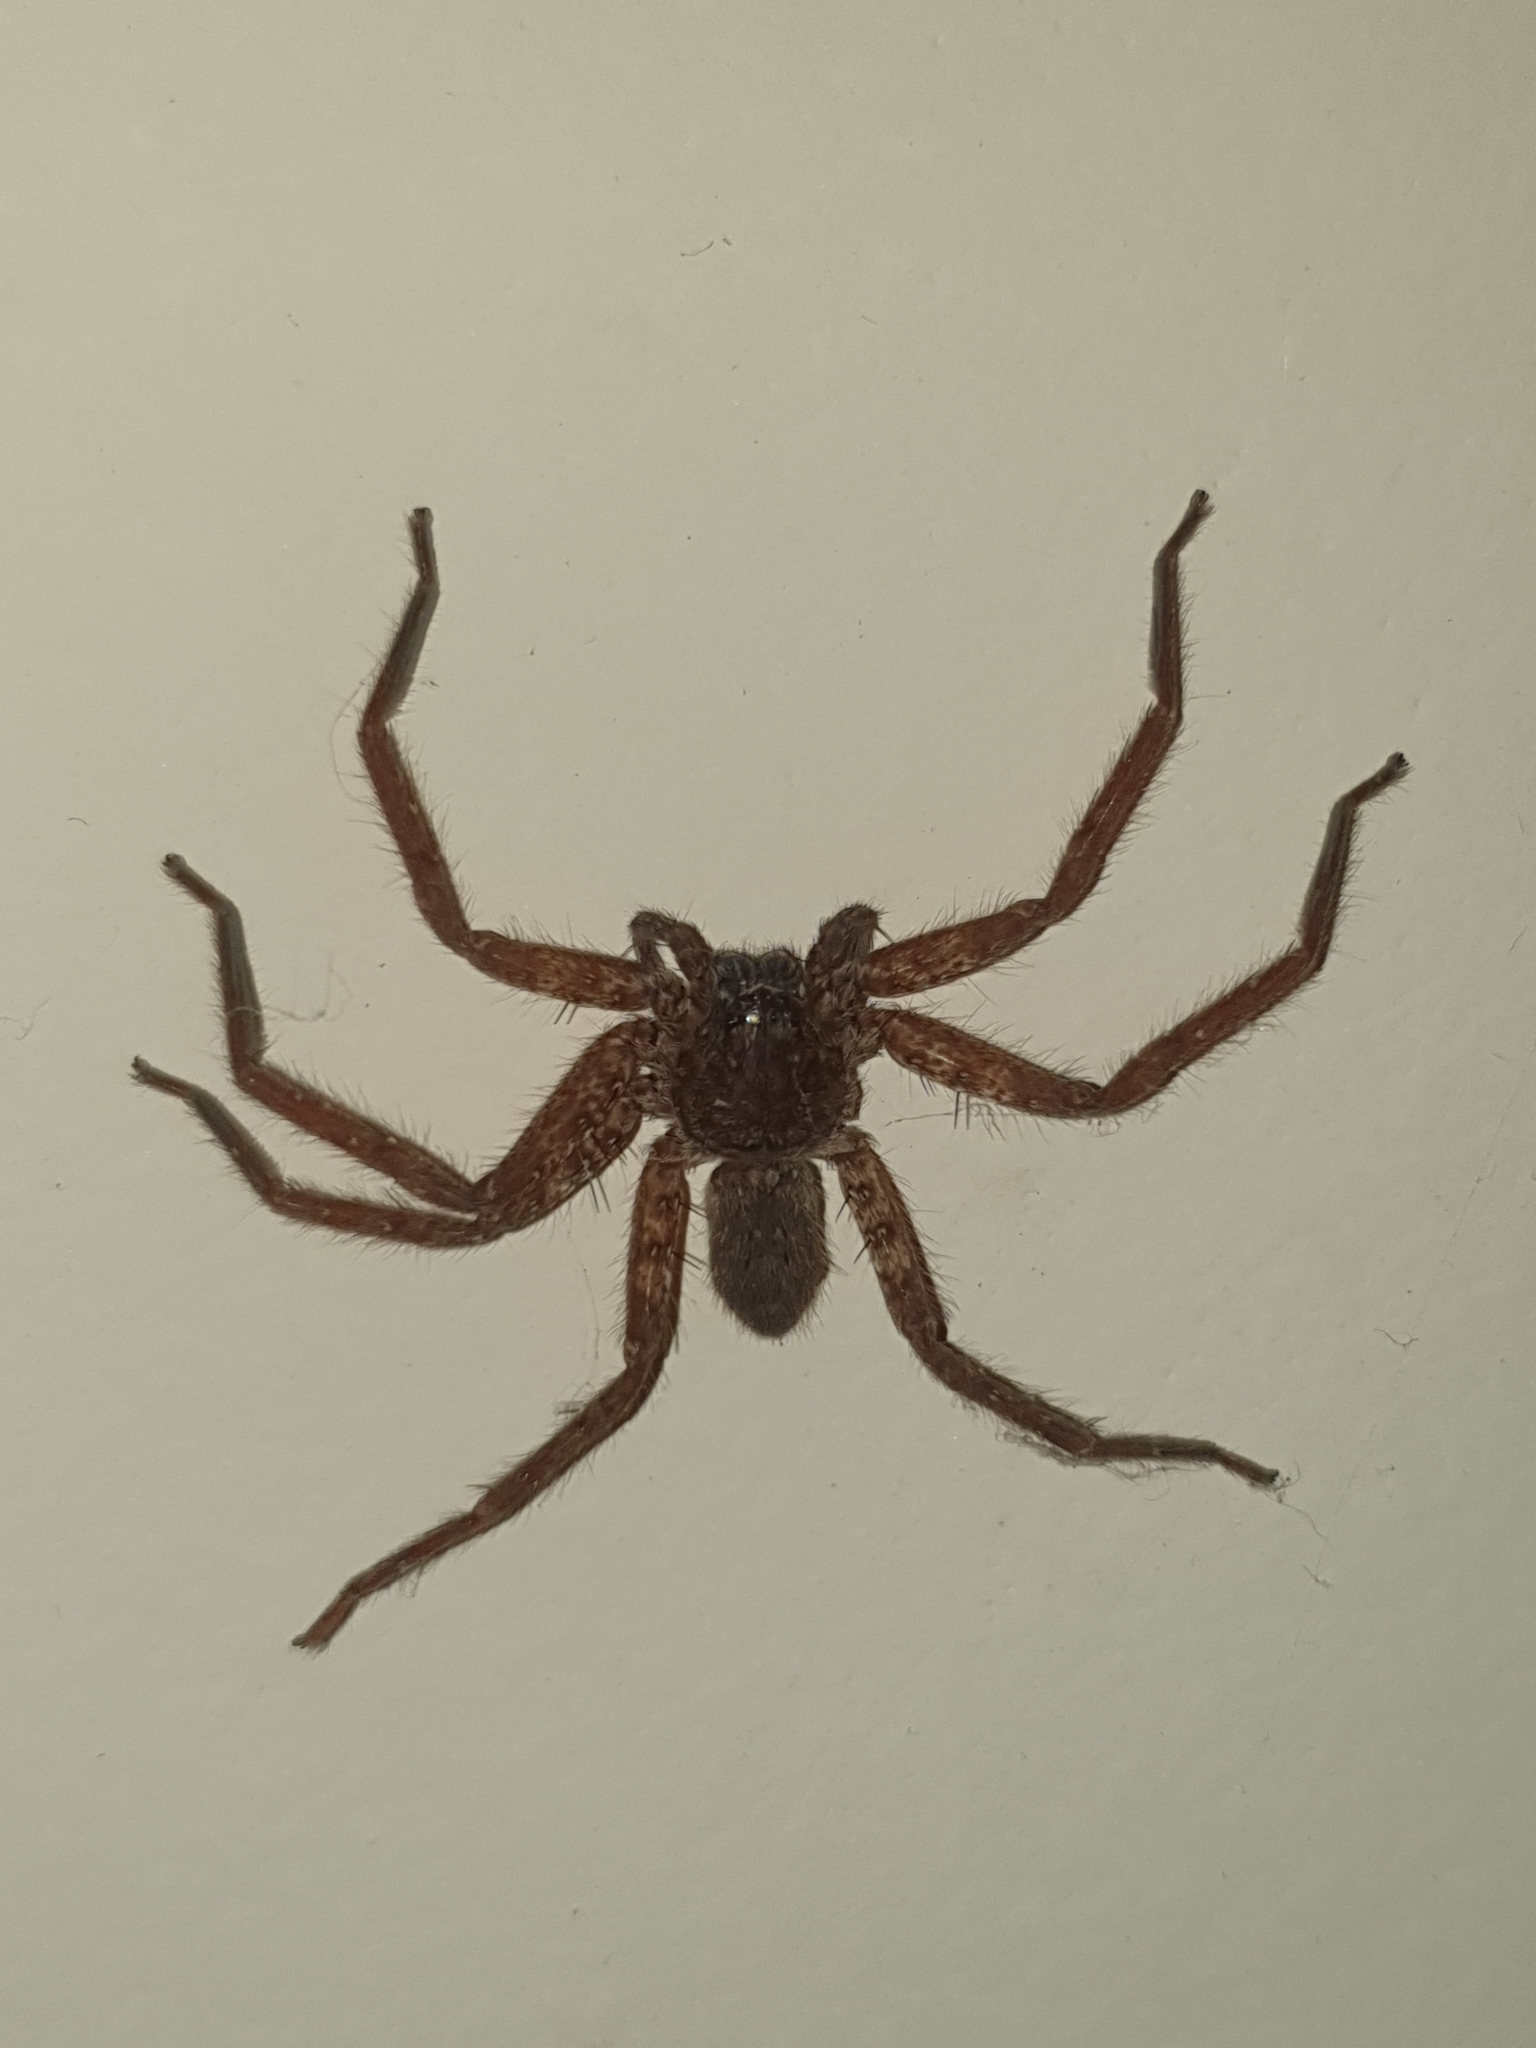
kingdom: Animalia
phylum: Arthropoda
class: Arachnida
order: Araneae
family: Sparassidae
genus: Heteropoda
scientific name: Heteropoda venatoria
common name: Huntsman spider
